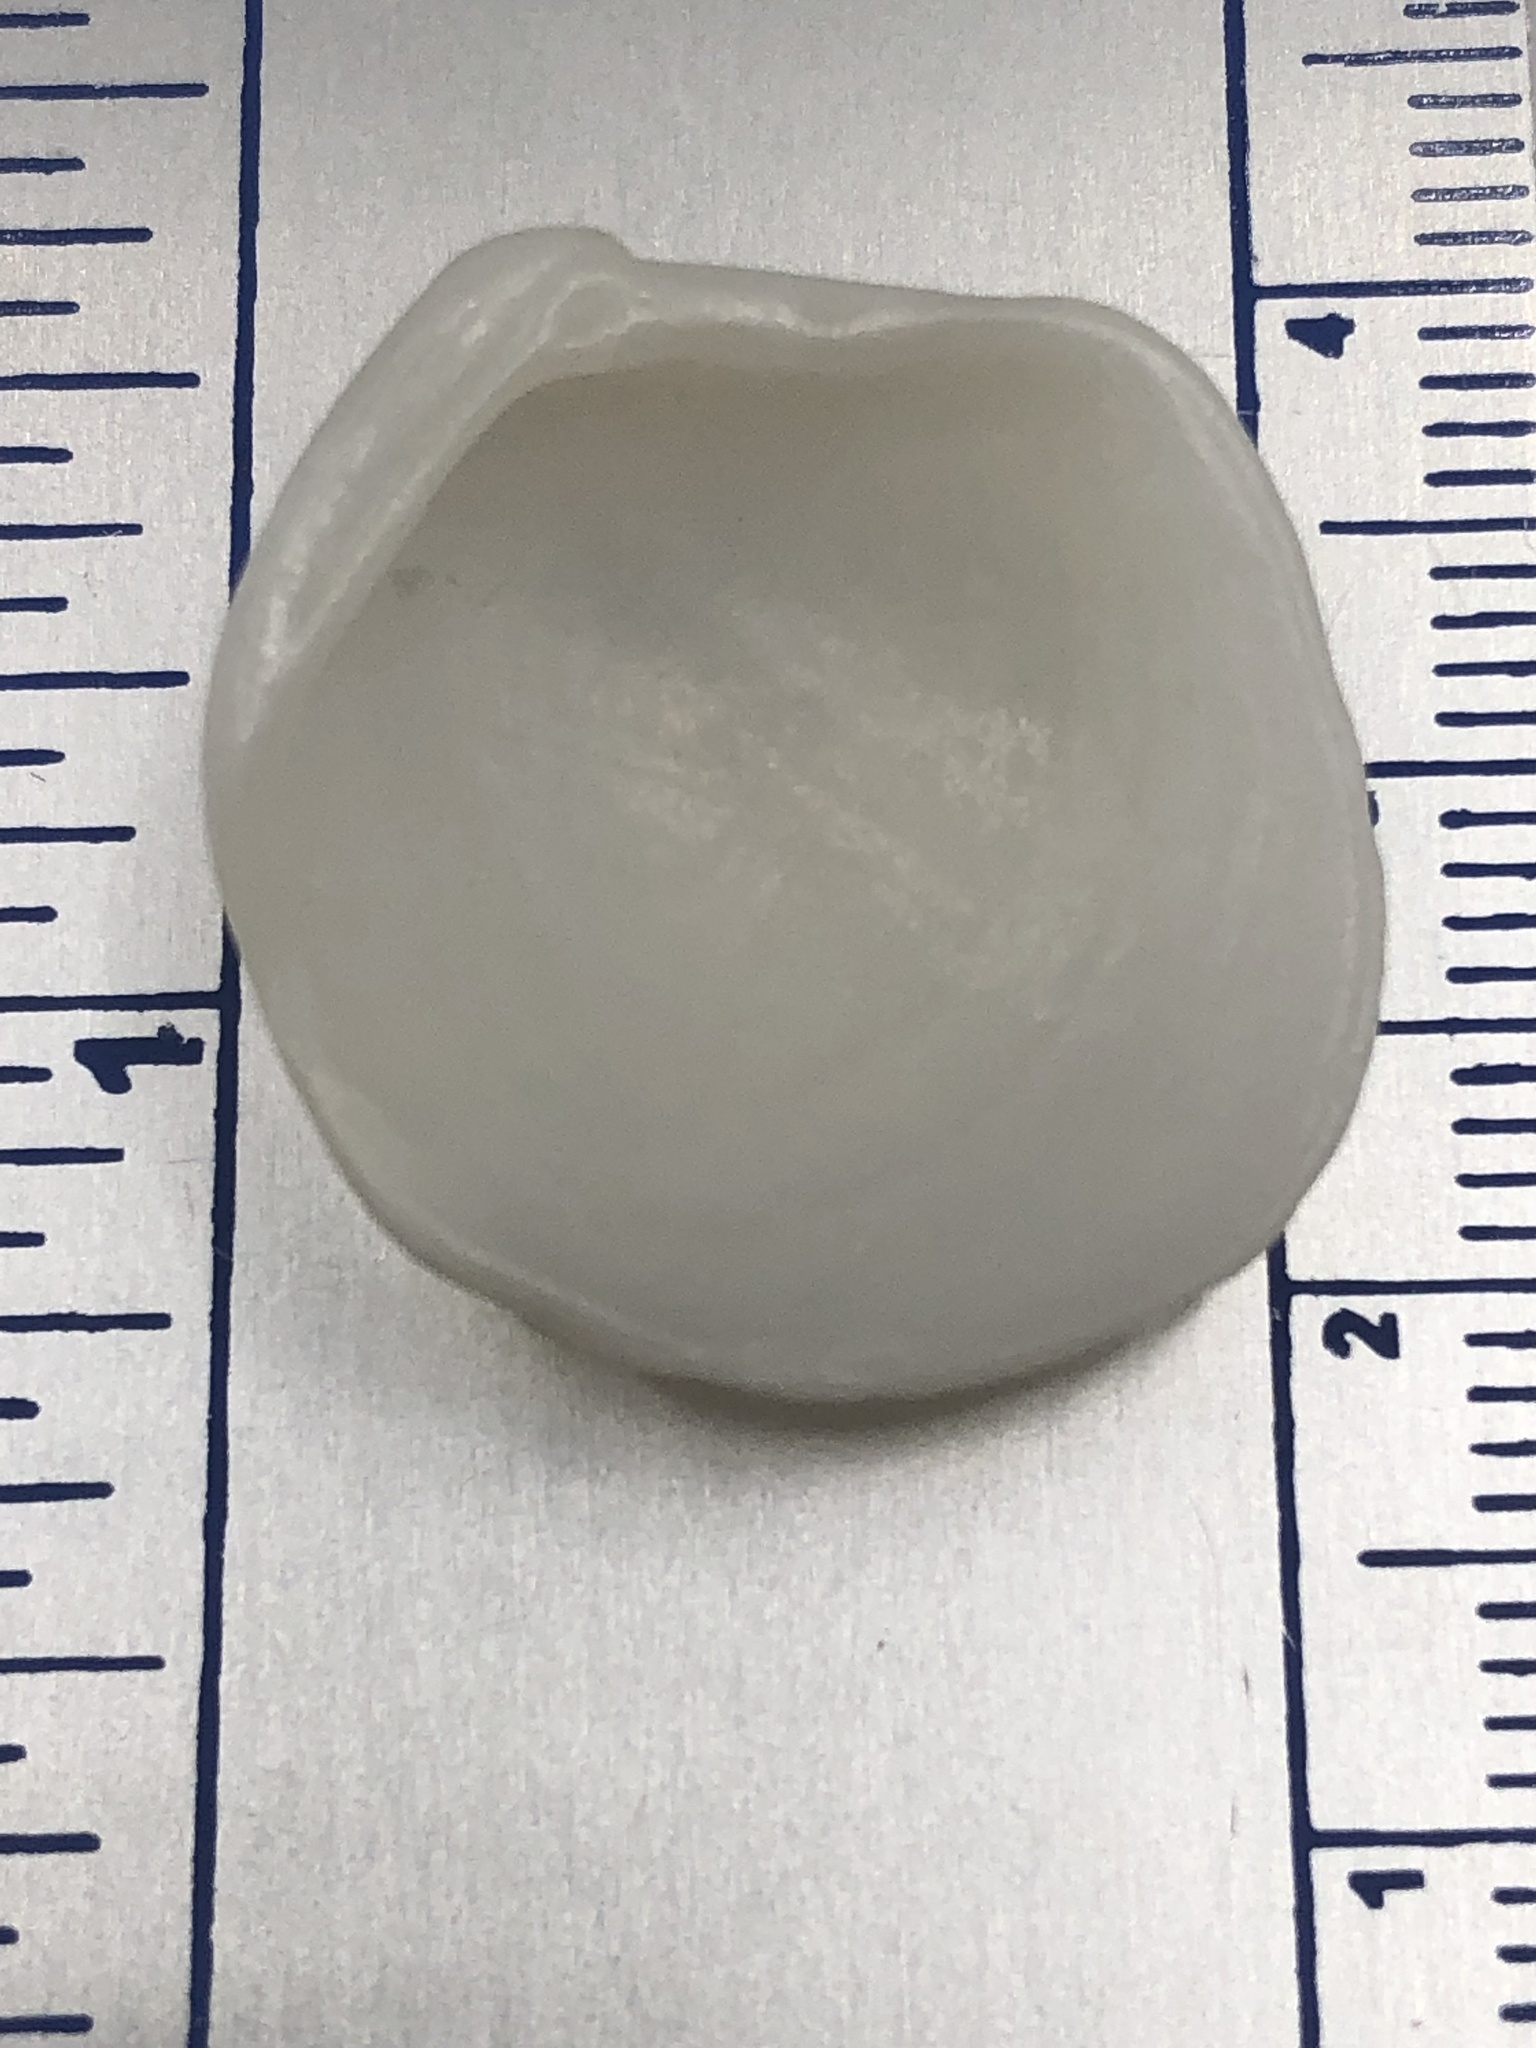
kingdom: Animalia
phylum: Mollusca
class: Bivalvia
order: Lucinida
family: Lucinidae
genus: Lucina
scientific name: Lucina pensylvanica
